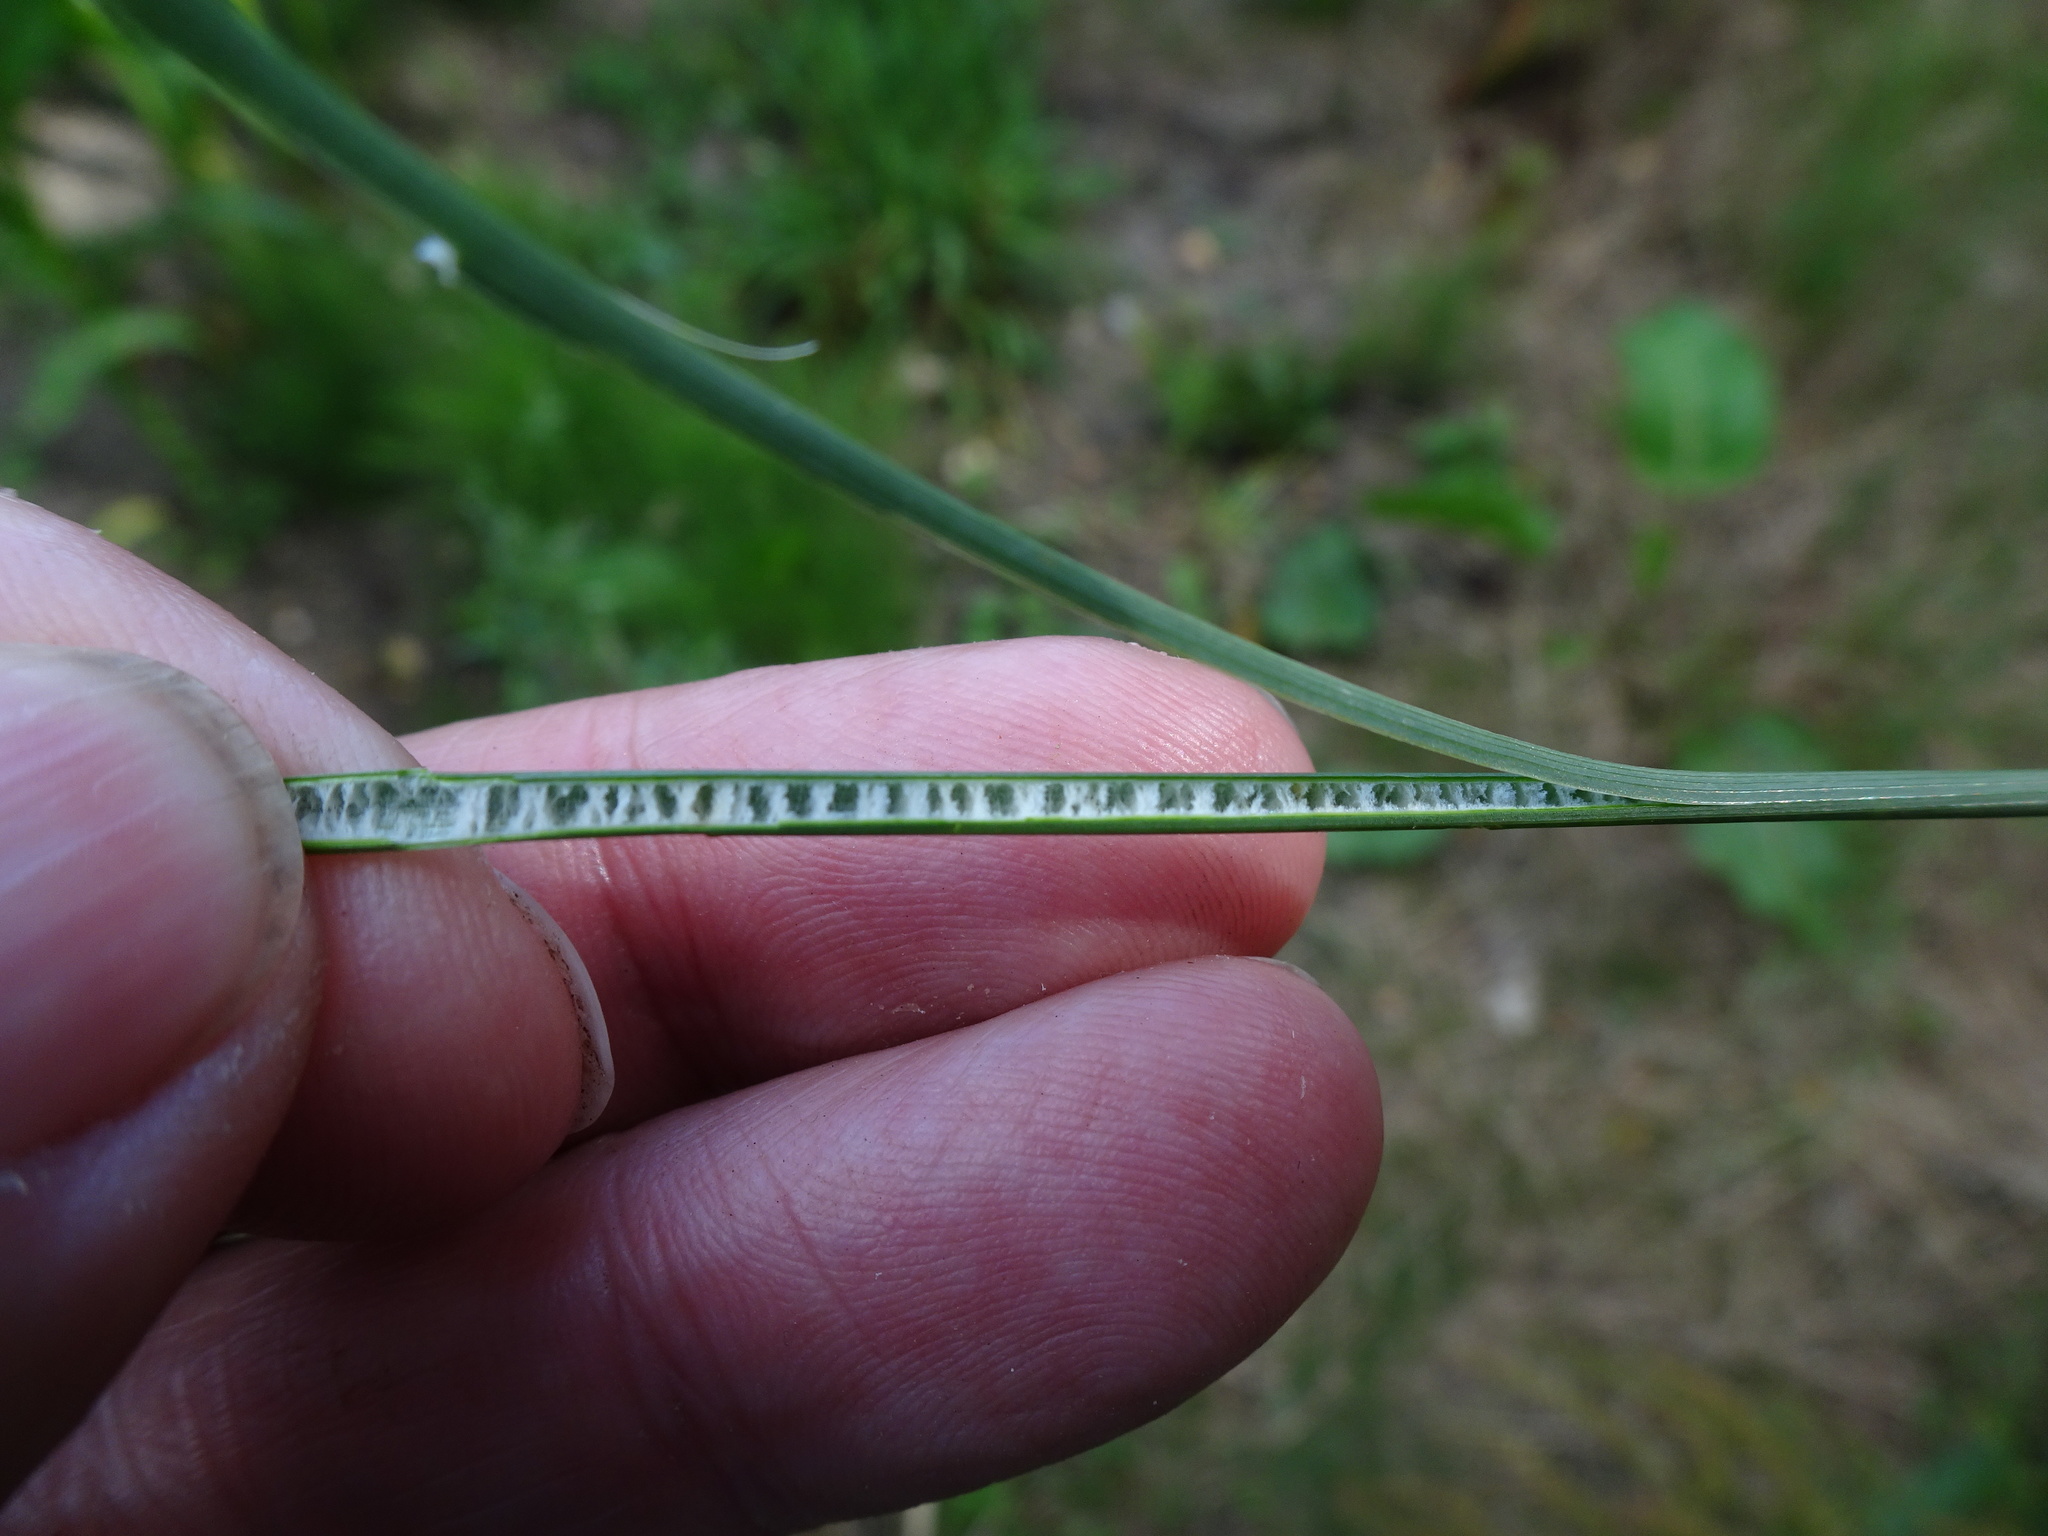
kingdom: Plantae
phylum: Tracheophyta
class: Liliopsida
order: Poales
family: Juncaceae
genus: Juncus
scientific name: Juncus inflexus
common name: Hard rush
